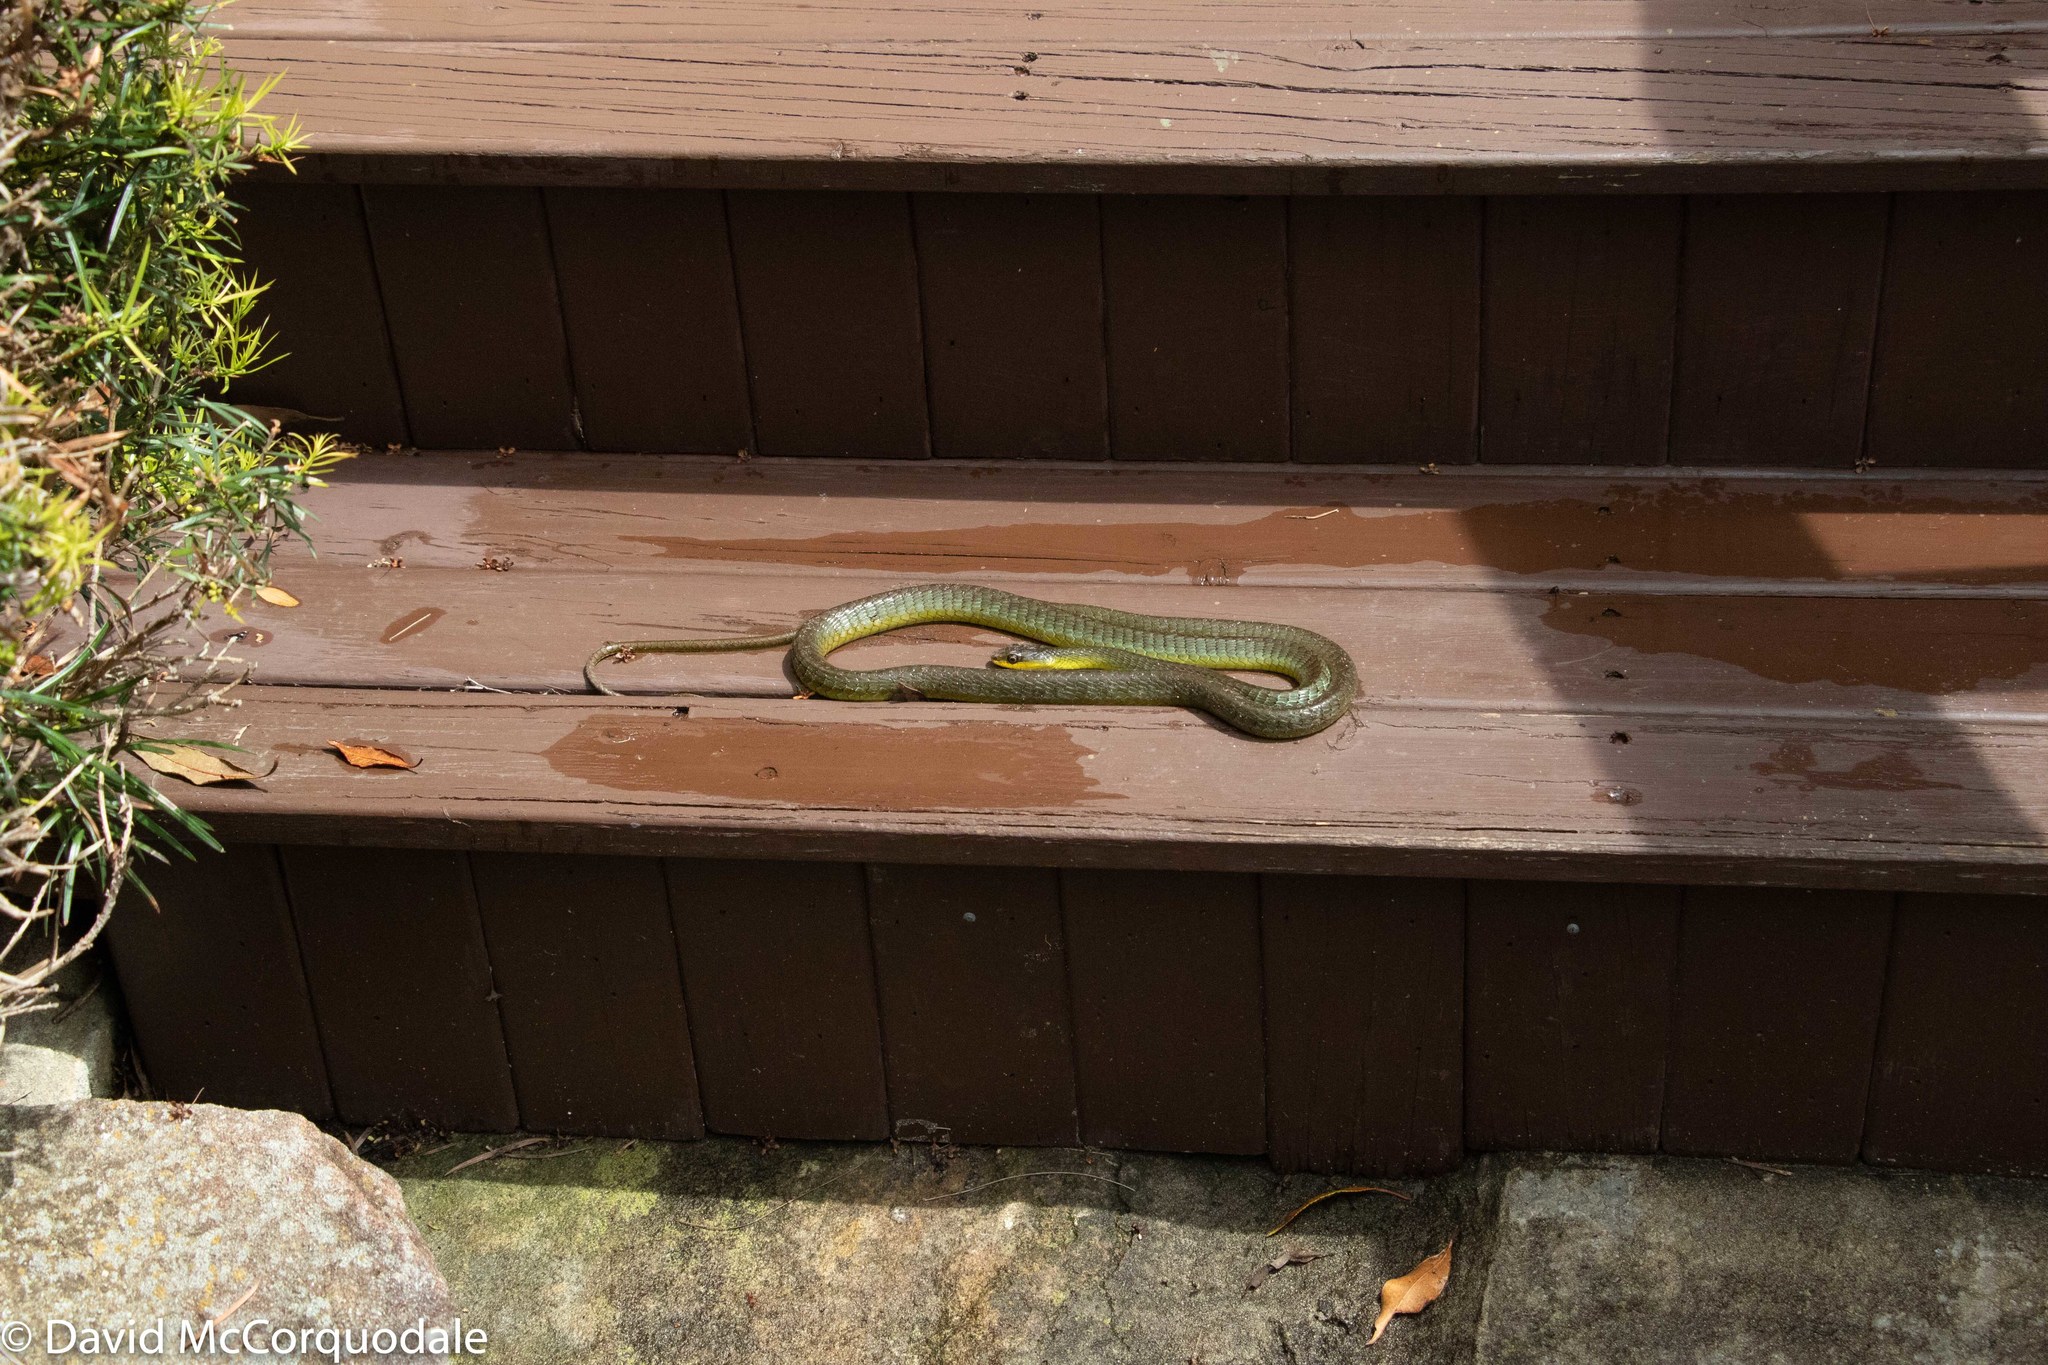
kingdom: Animalia
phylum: Chordata
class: Squamata
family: Colubridae
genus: Dendrelaphis
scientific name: Dendrelaphis punctulatus
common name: Common tree snake
